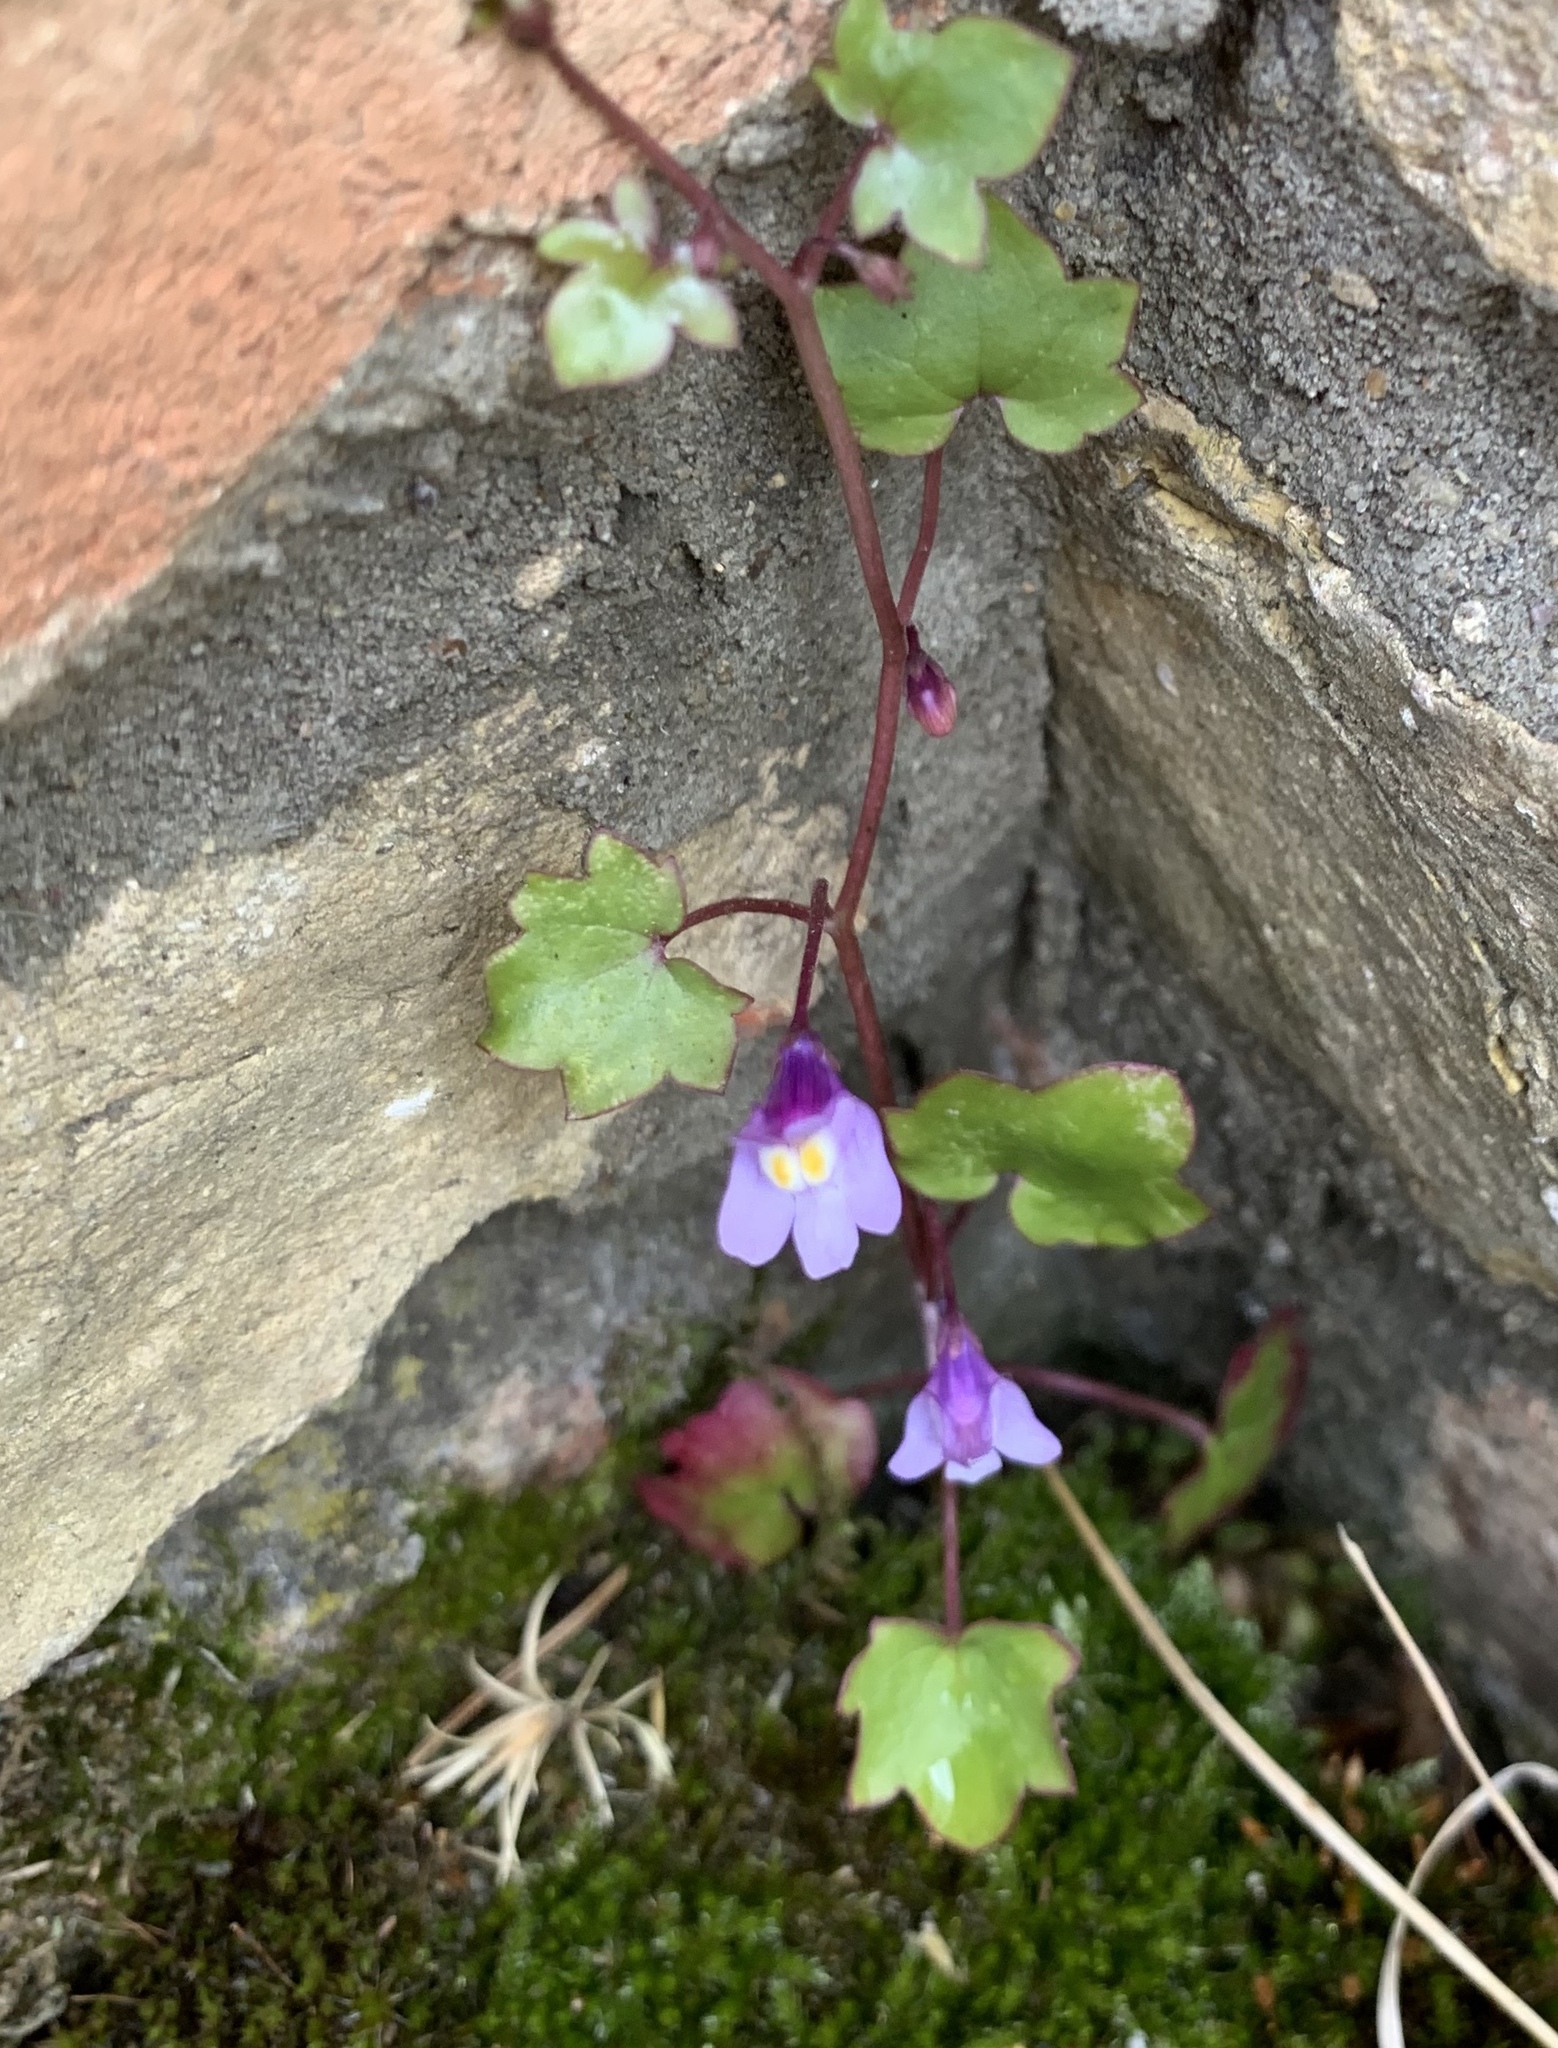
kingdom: Plantae
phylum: Tracheophyta
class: Magnoliopsida
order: Lamiales
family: Plantaginaceae
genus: Cymbalaria
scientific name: Cymbalaria muralis
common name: Ivy-leaved toadflax
